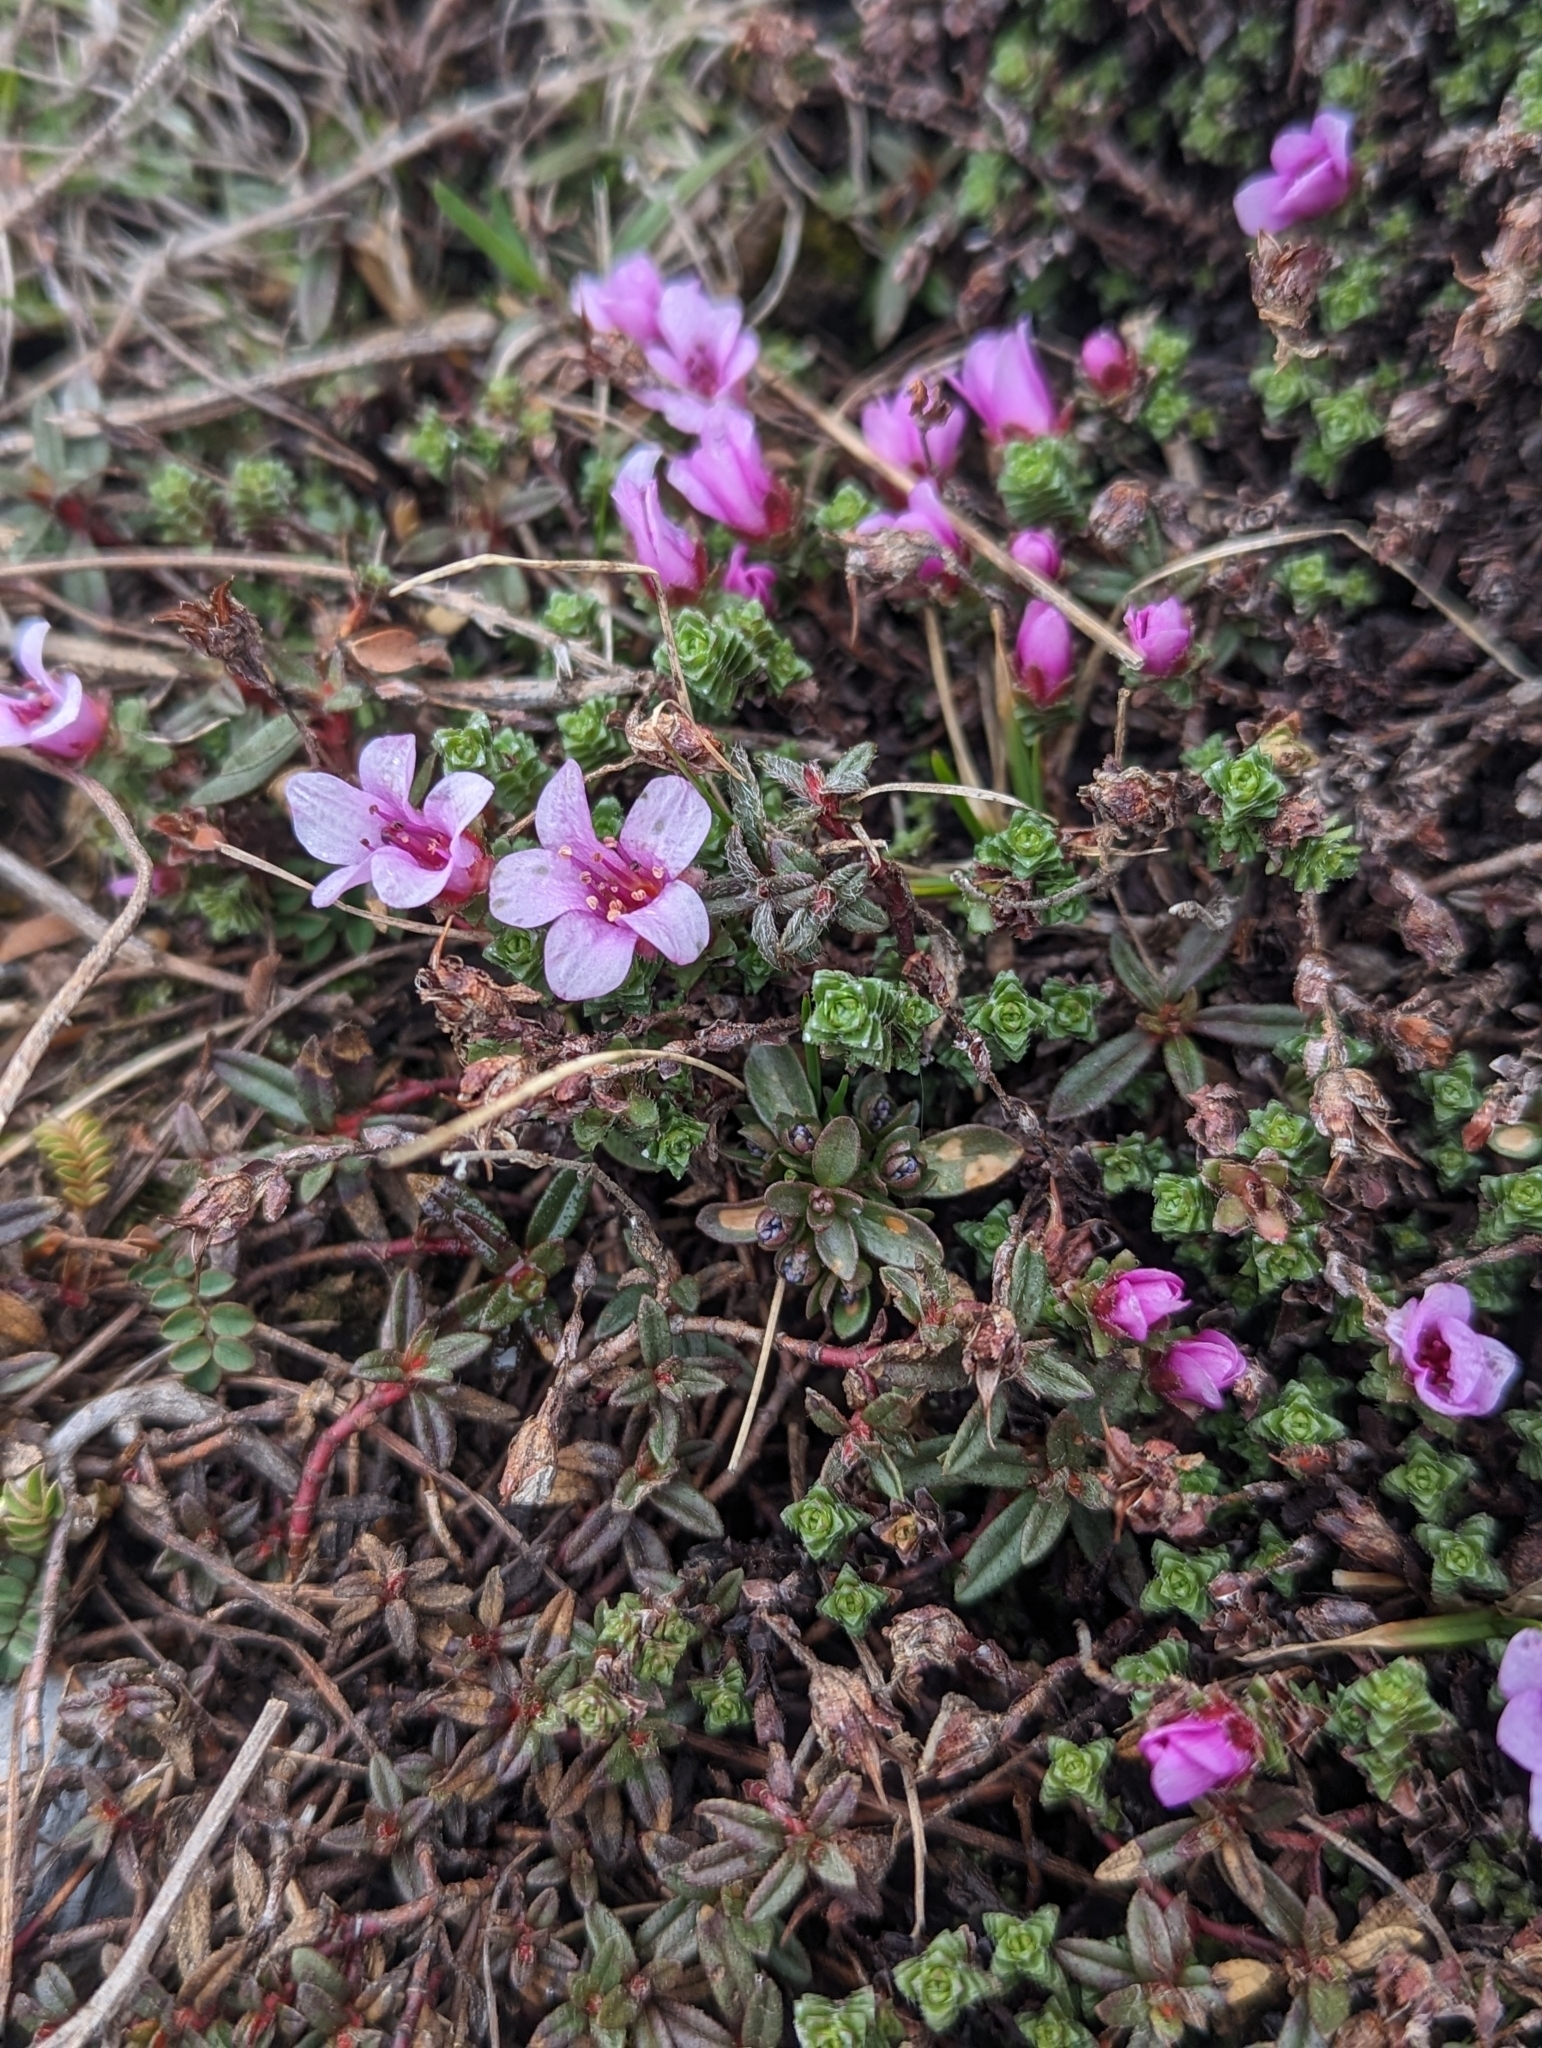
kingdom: Plantae
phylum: Tracheophyta
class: Magnoliopsida
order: Saxifragales
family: Saxifragaceae
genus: Saxifraga
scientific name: Saxifraga oppositifolia
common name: Purple saxifrage
